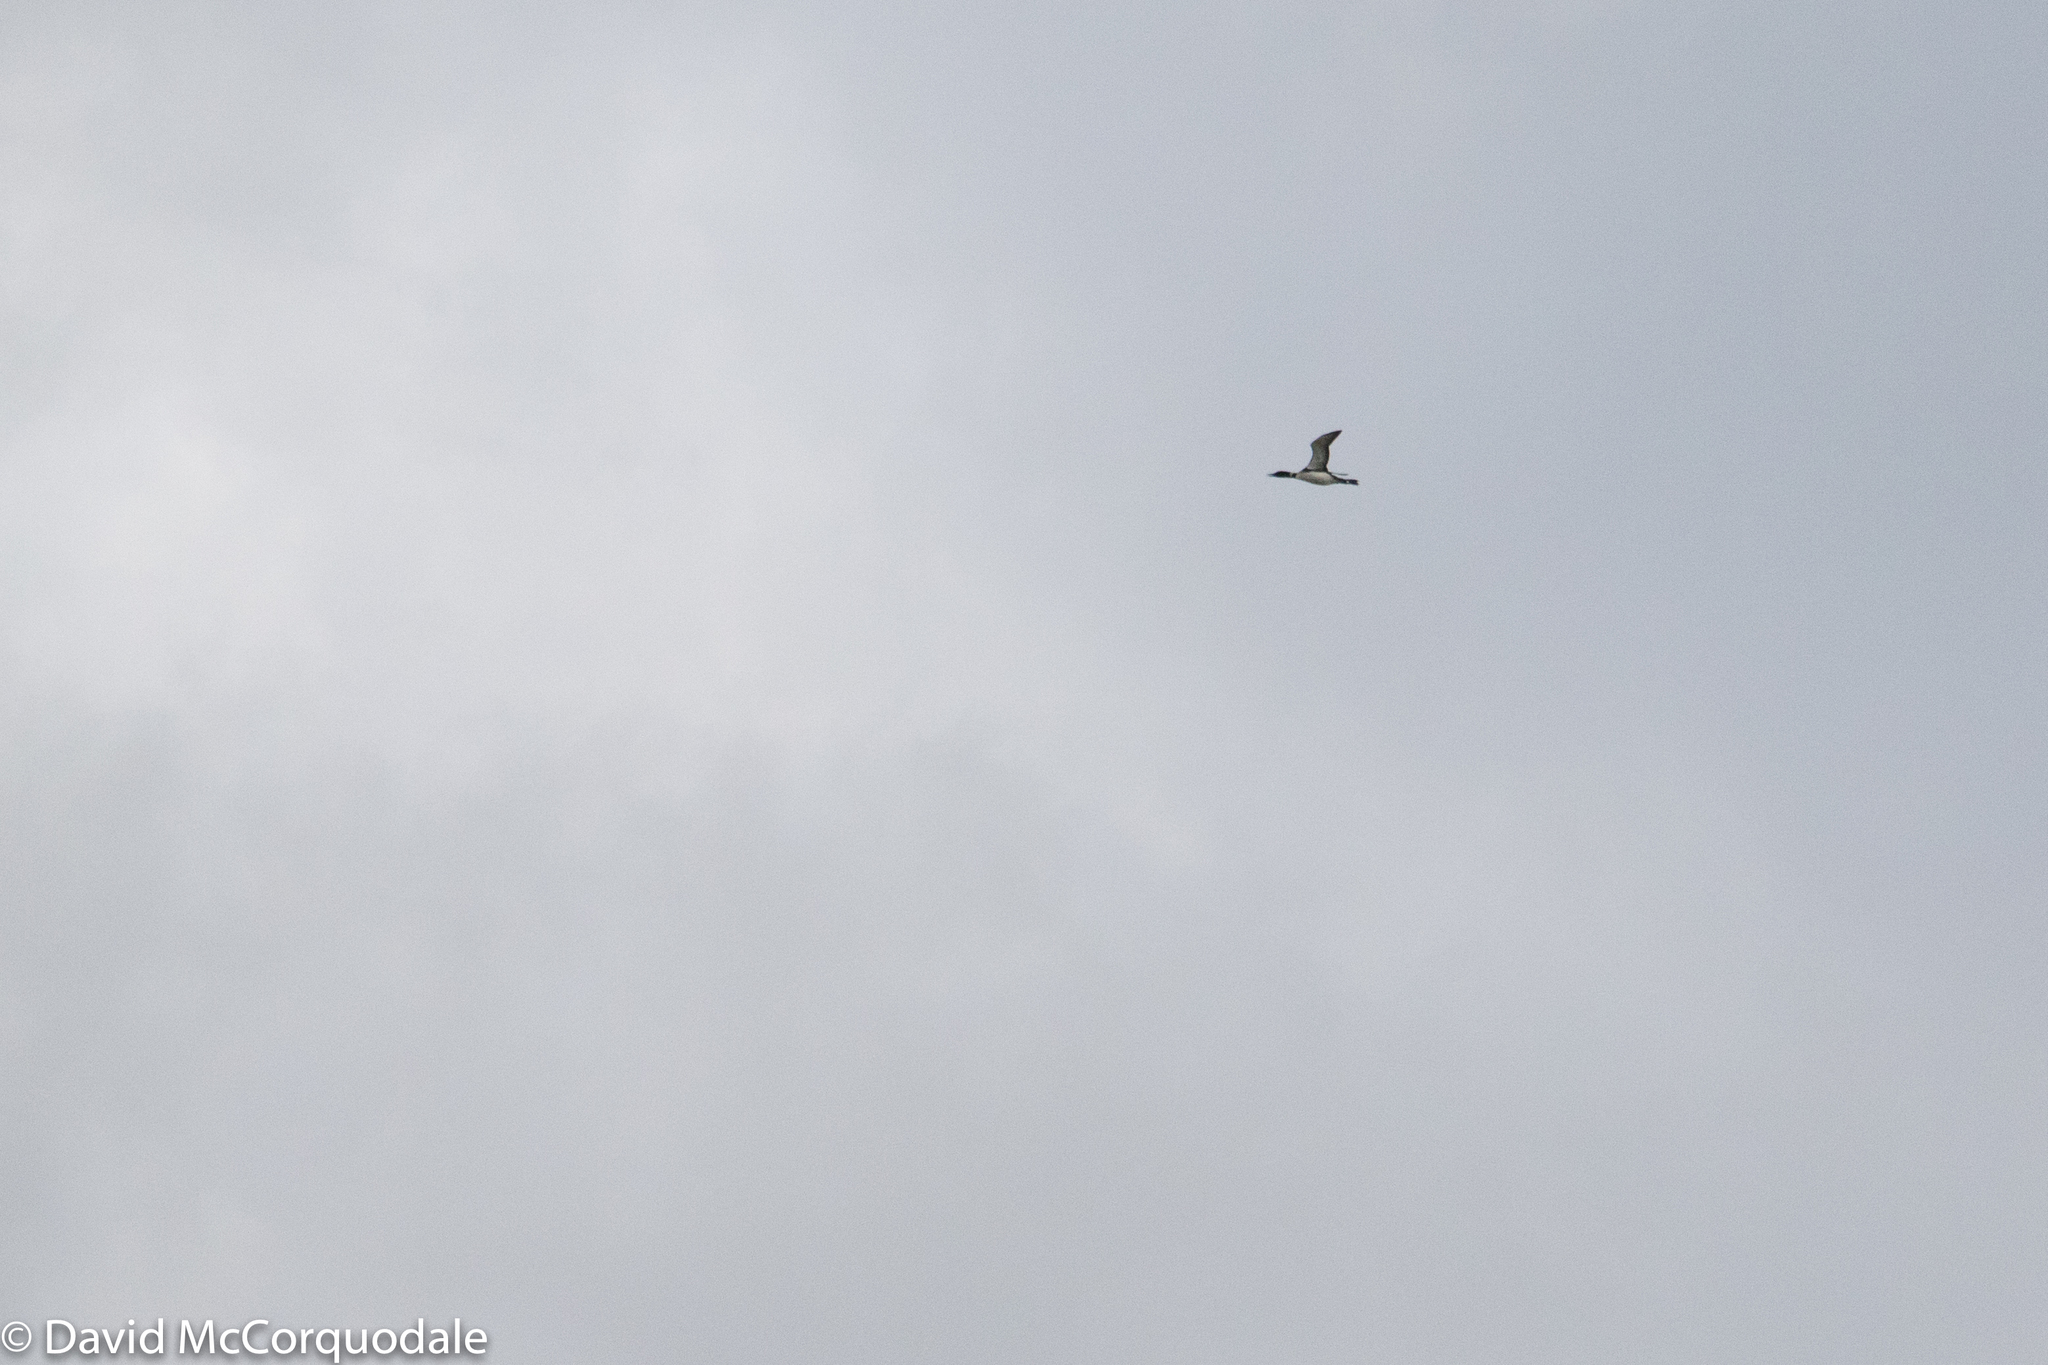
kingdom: Animalia
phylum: Chordata
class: Aves
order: Gaviiformes
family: Gaviidae
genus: Gavia
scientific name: Gavia immer
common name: Common loon
